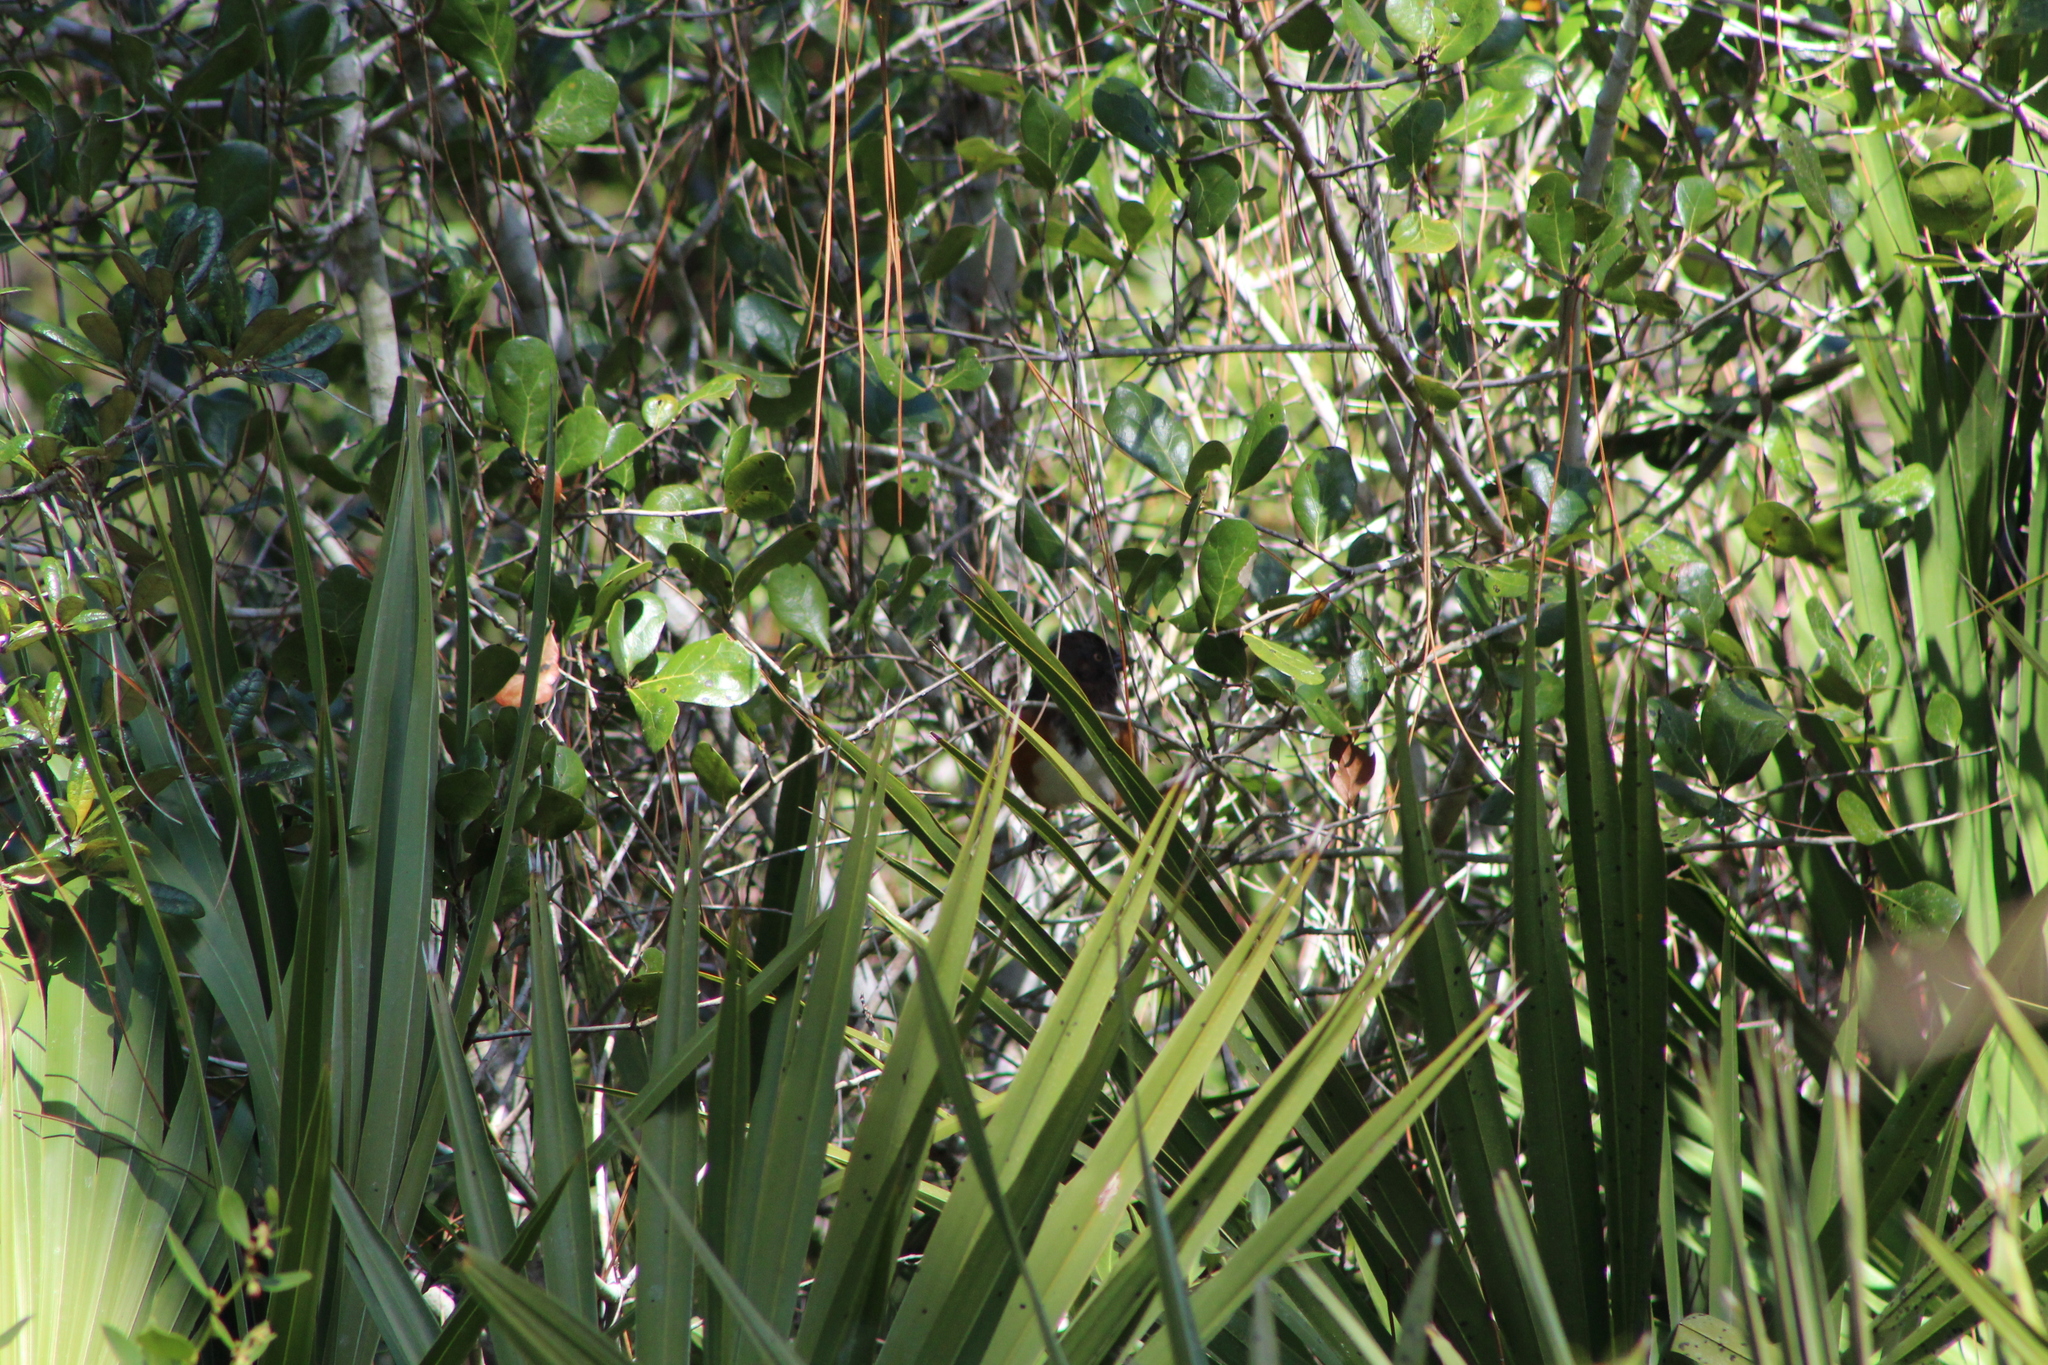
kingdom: Animalia
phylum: Chordata
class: Aves
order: Passeriformes
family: Passerellidae
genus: Pipilo
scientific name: Pipilo erythrophthalmus
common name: Eastern towhee
